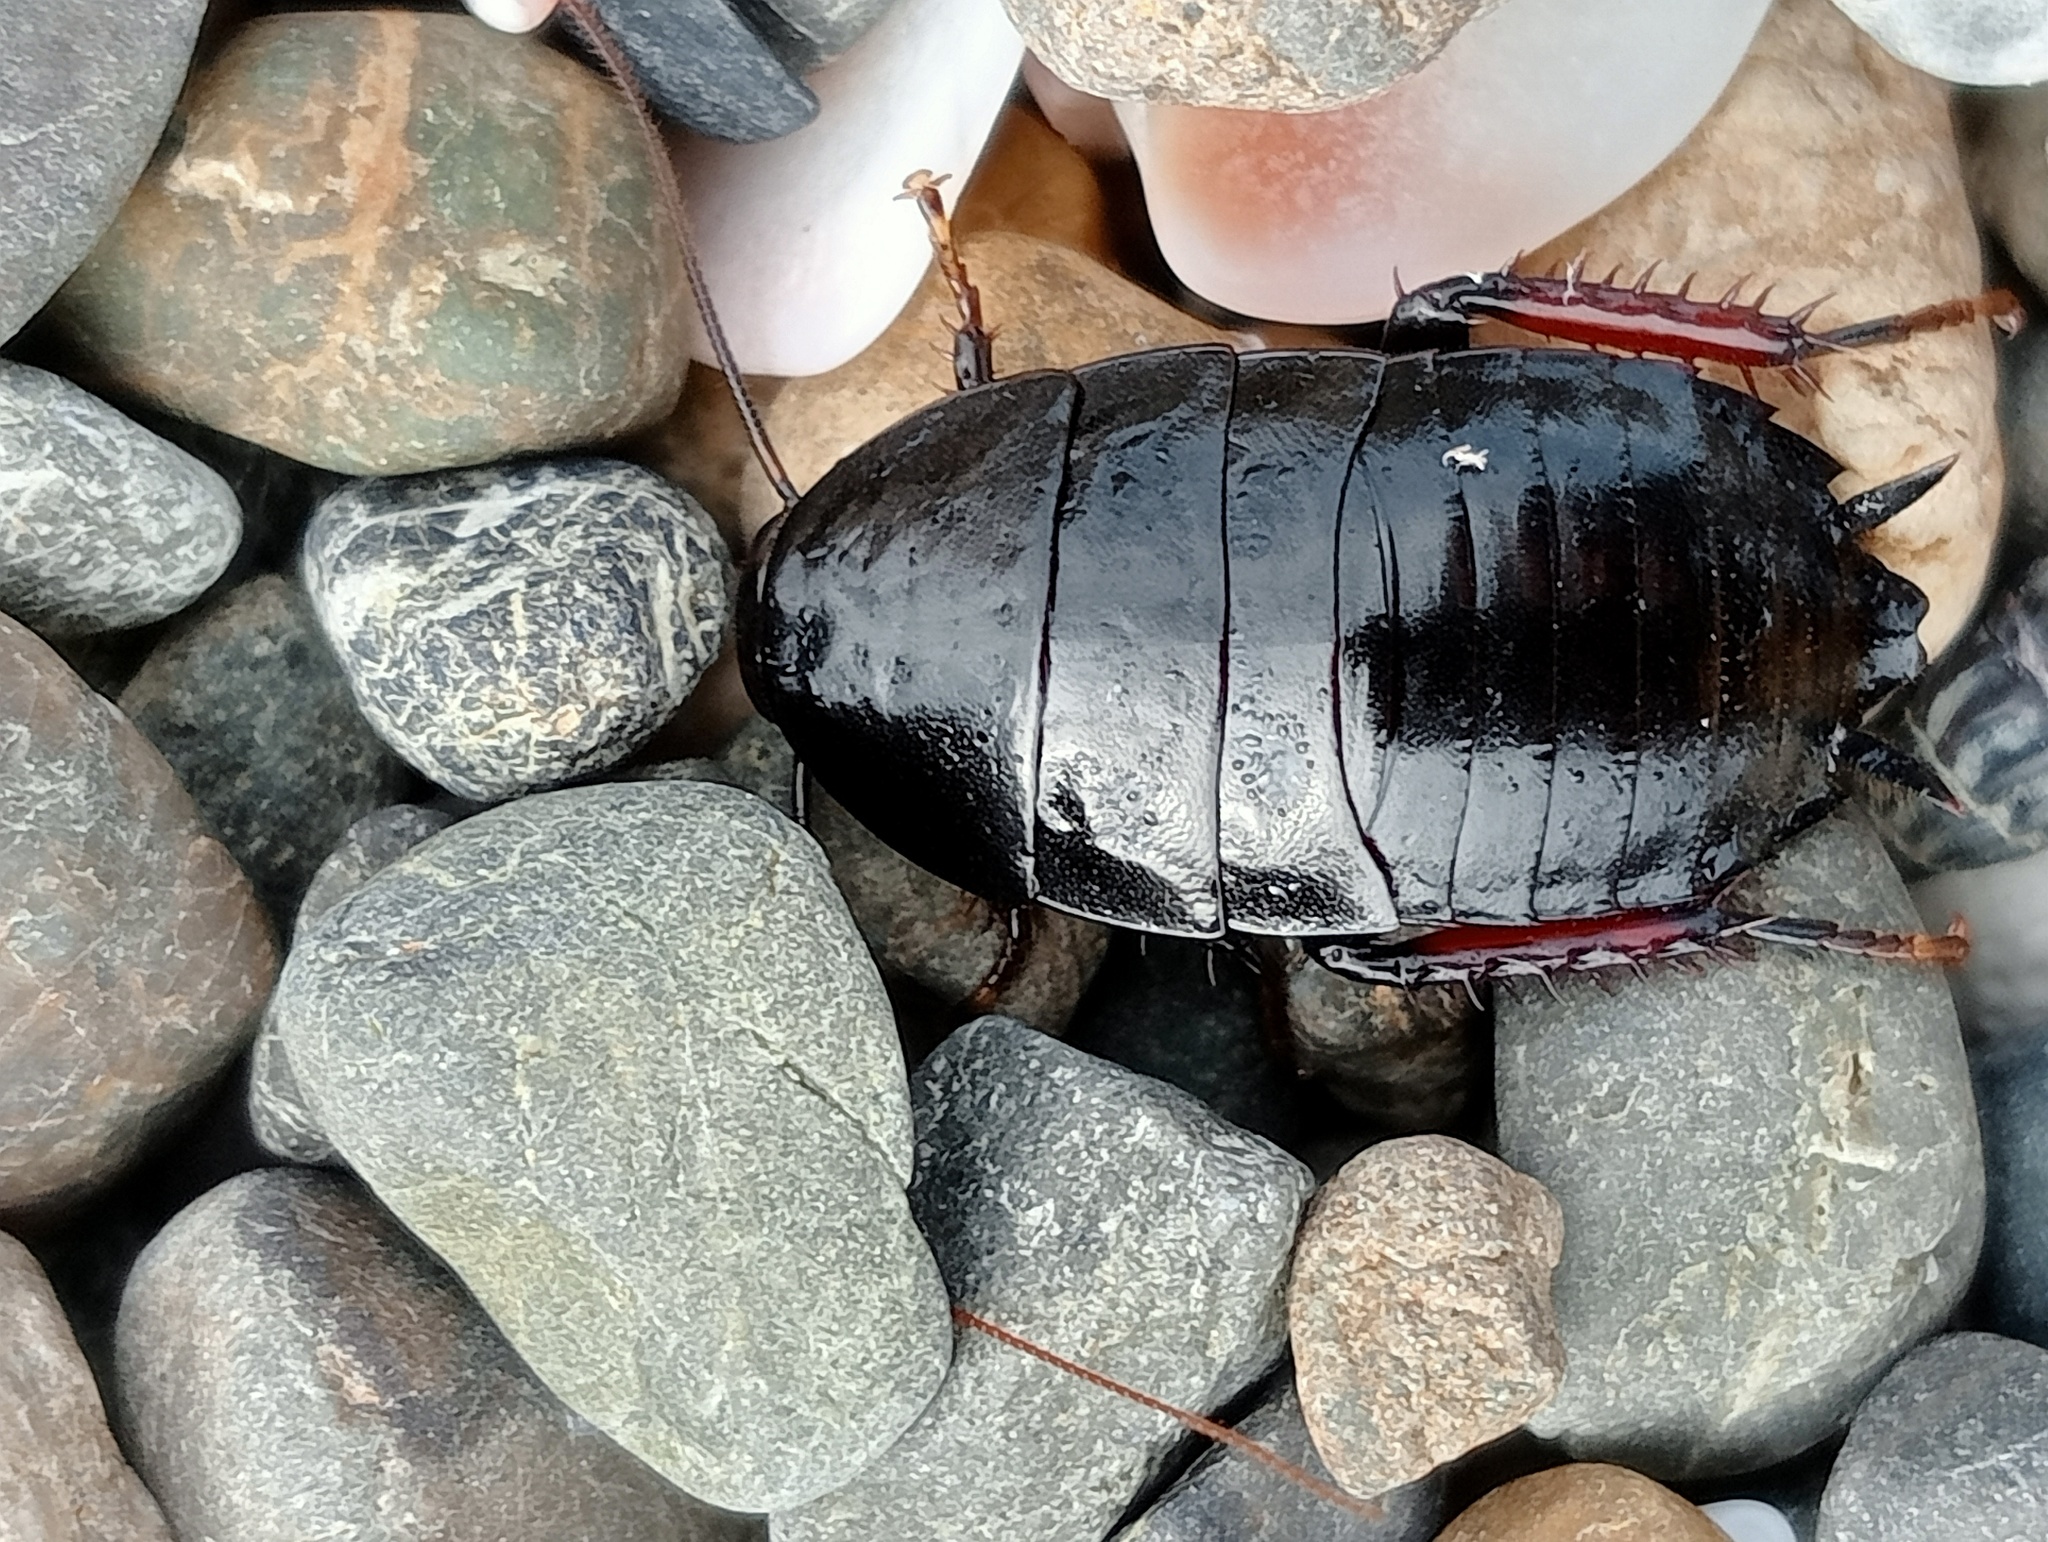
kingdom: Animalia
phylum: Arthropoda
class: Insecta
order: Blattodea
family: Blattidae
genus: Maoriblatta
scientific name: Maoriblatta novaeseelandiae
